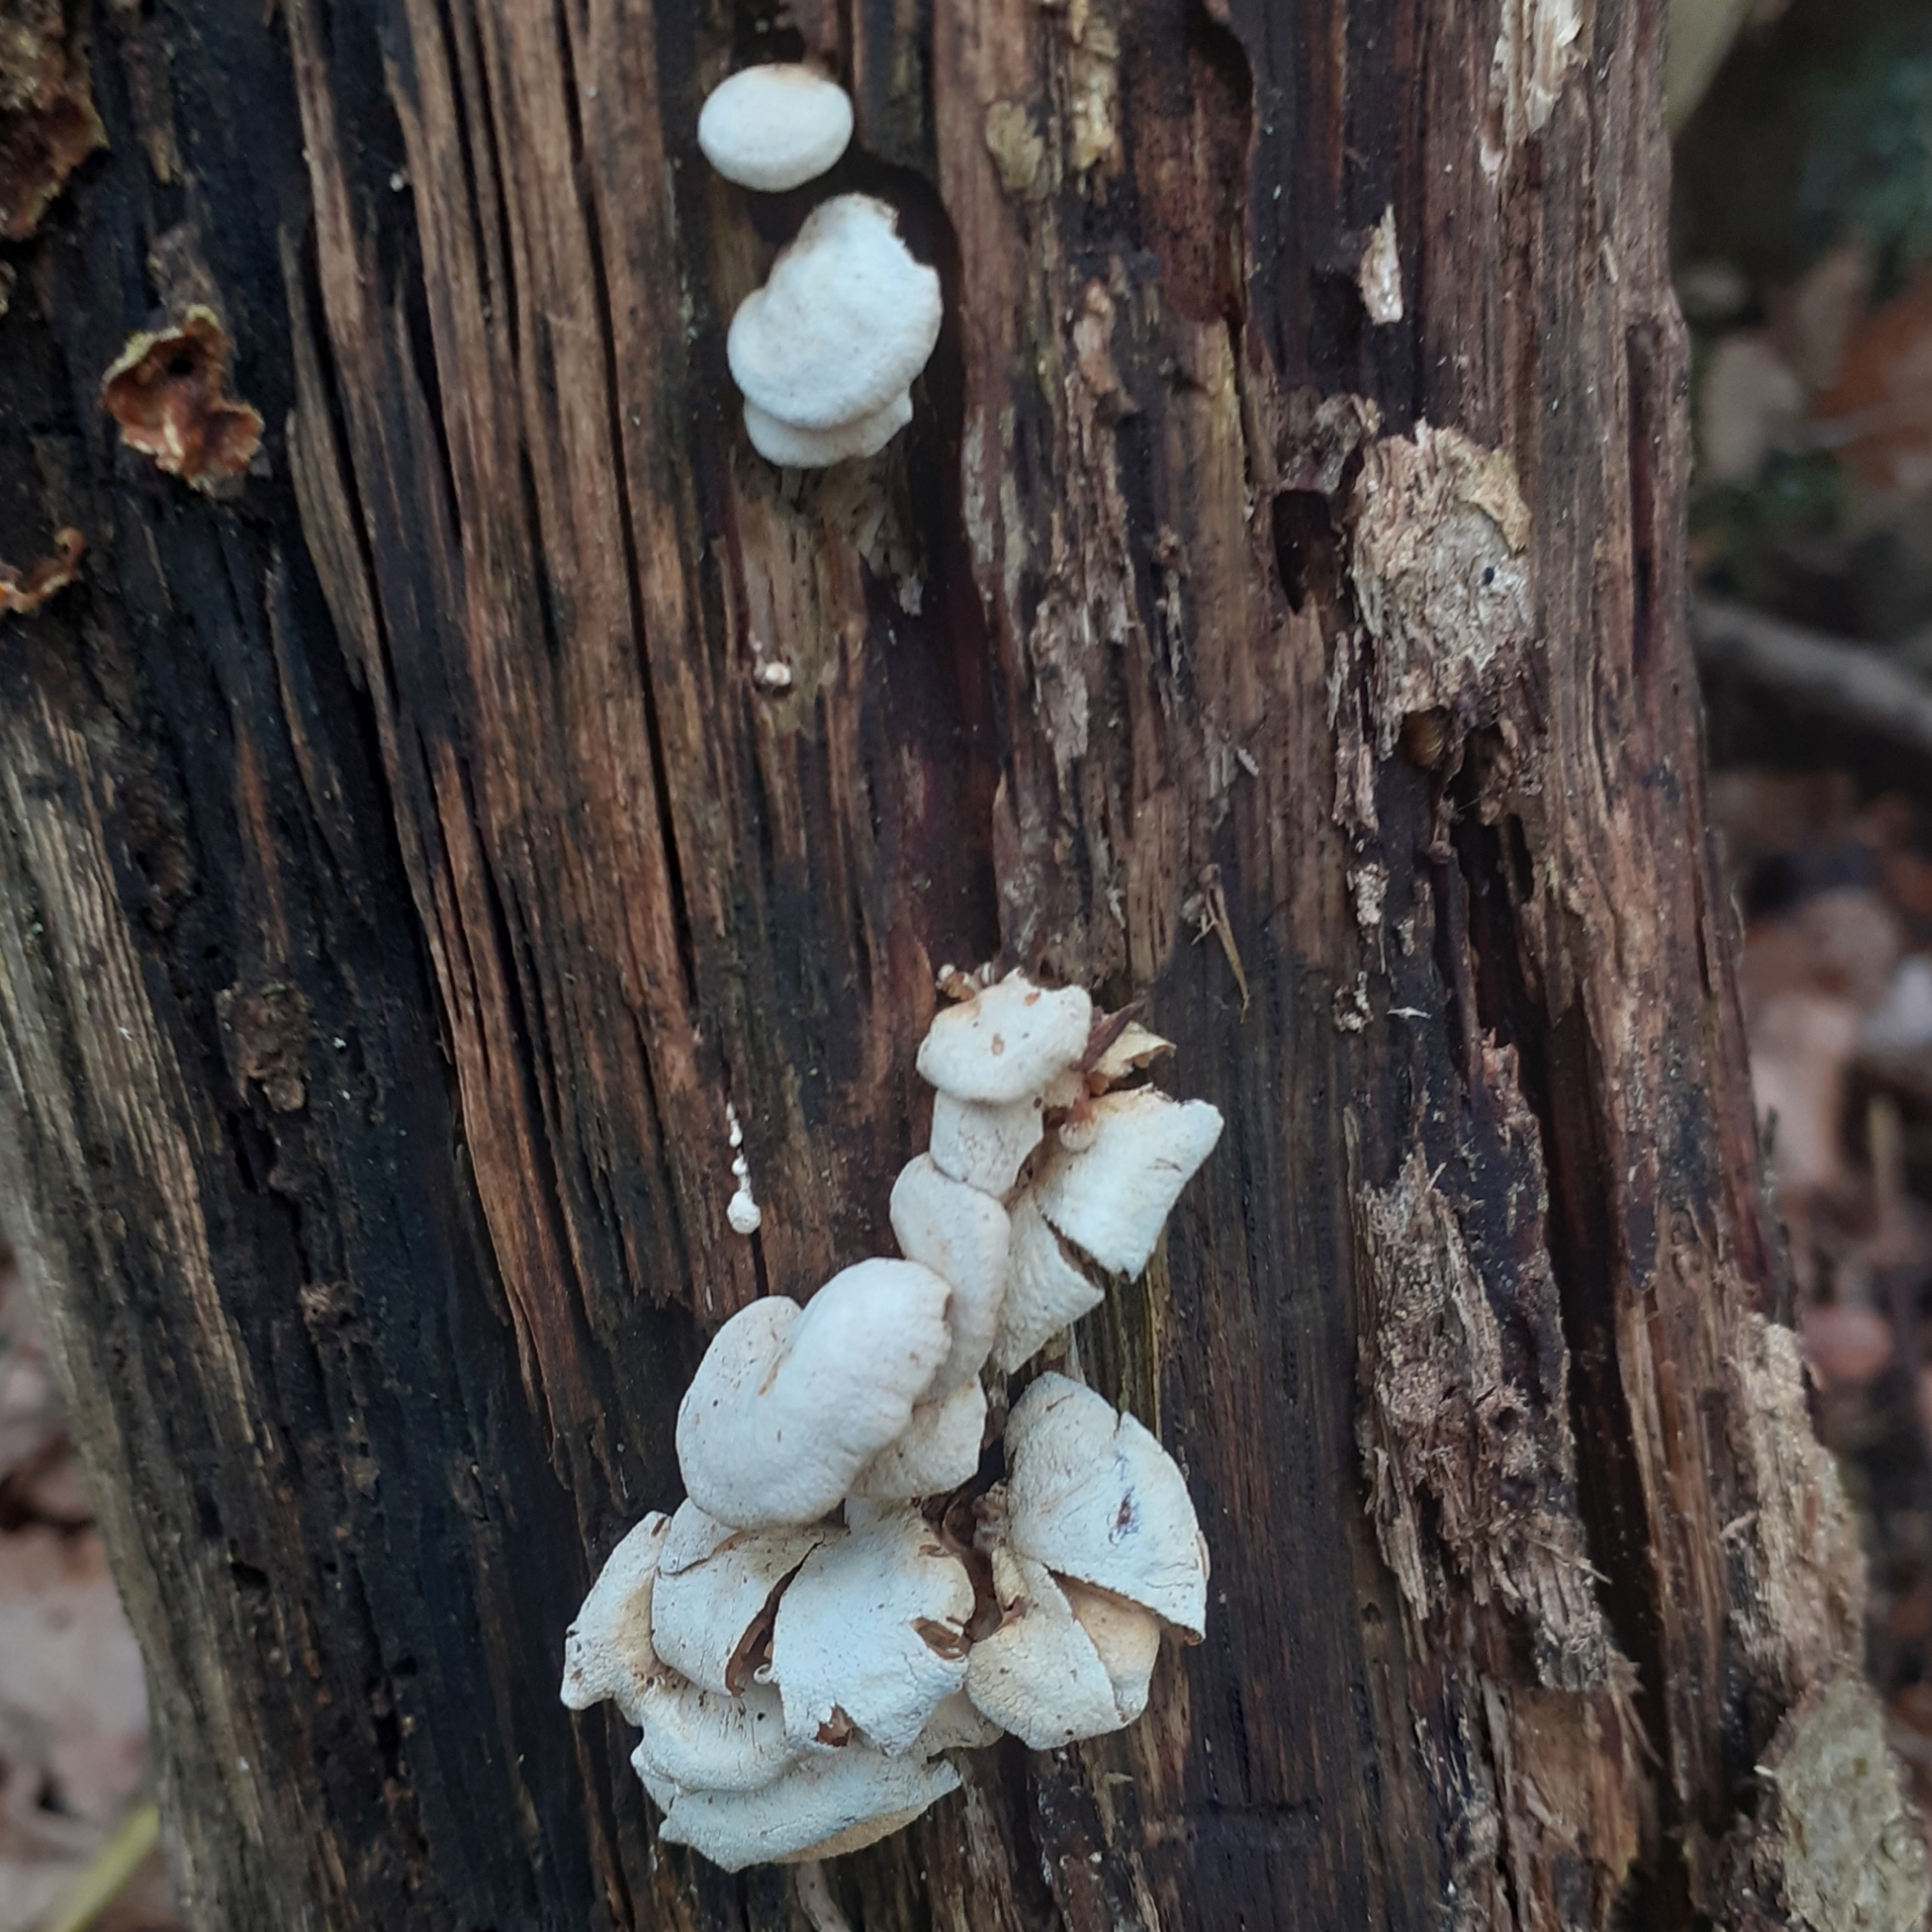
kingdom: Fungi
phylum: Basidiomycota
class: Agaricomycetes
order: Agaricales
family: Mycenaceae
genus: Panellus
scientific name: Panellus stipticus
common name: Bitter oysterling
